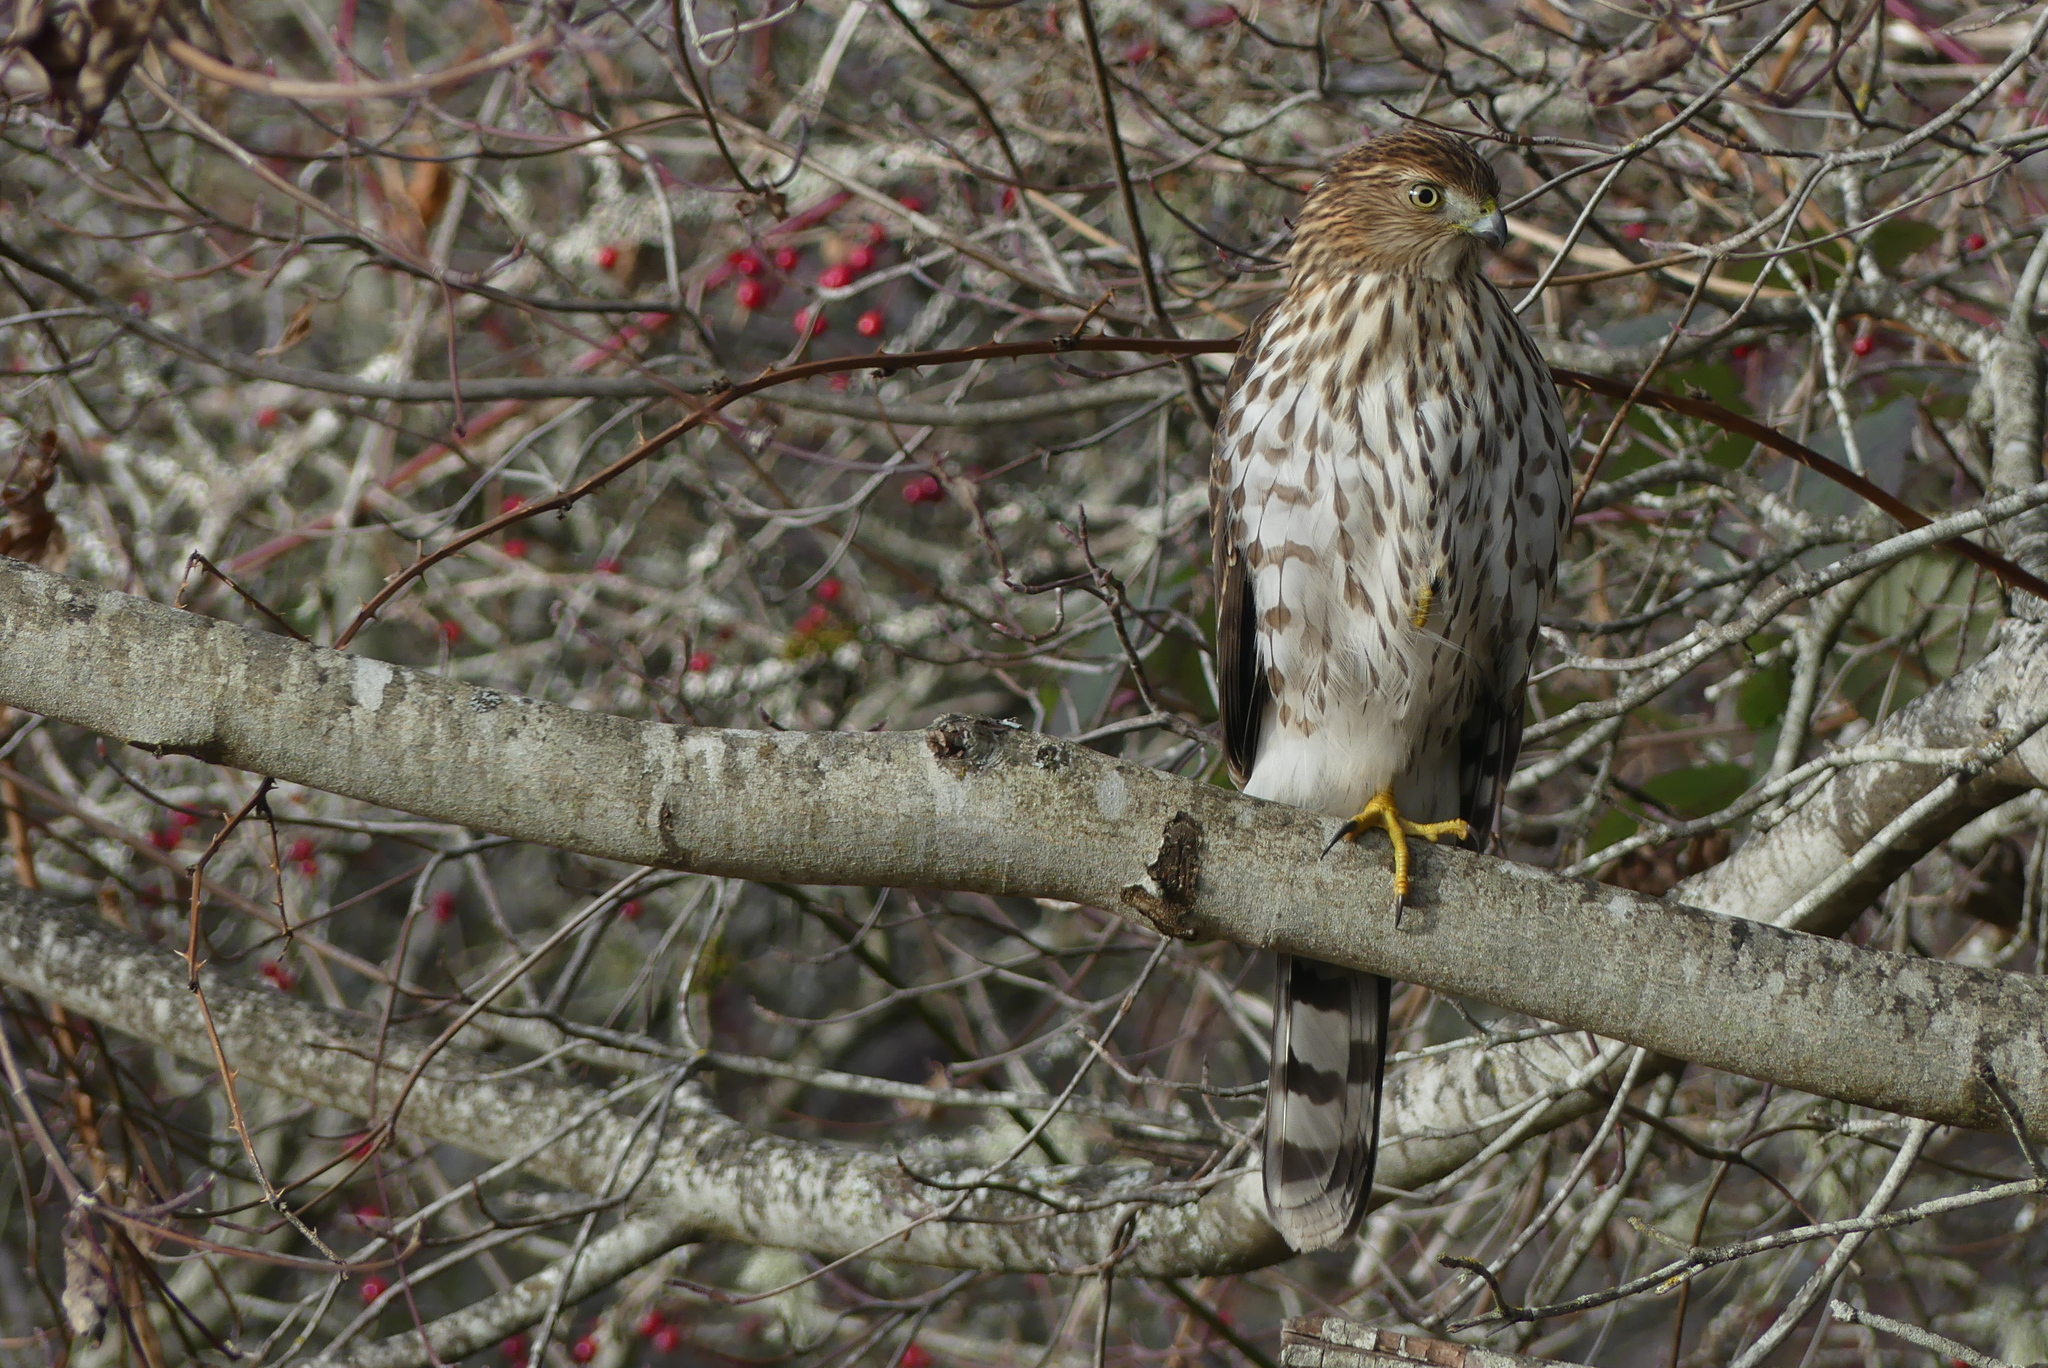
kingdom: Animalia
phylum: Chordata
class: Aves
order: Accipitriformes
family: Accipitridae
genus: Accipiter
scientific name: Accipiter cooperii
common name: Cooper's hawk
